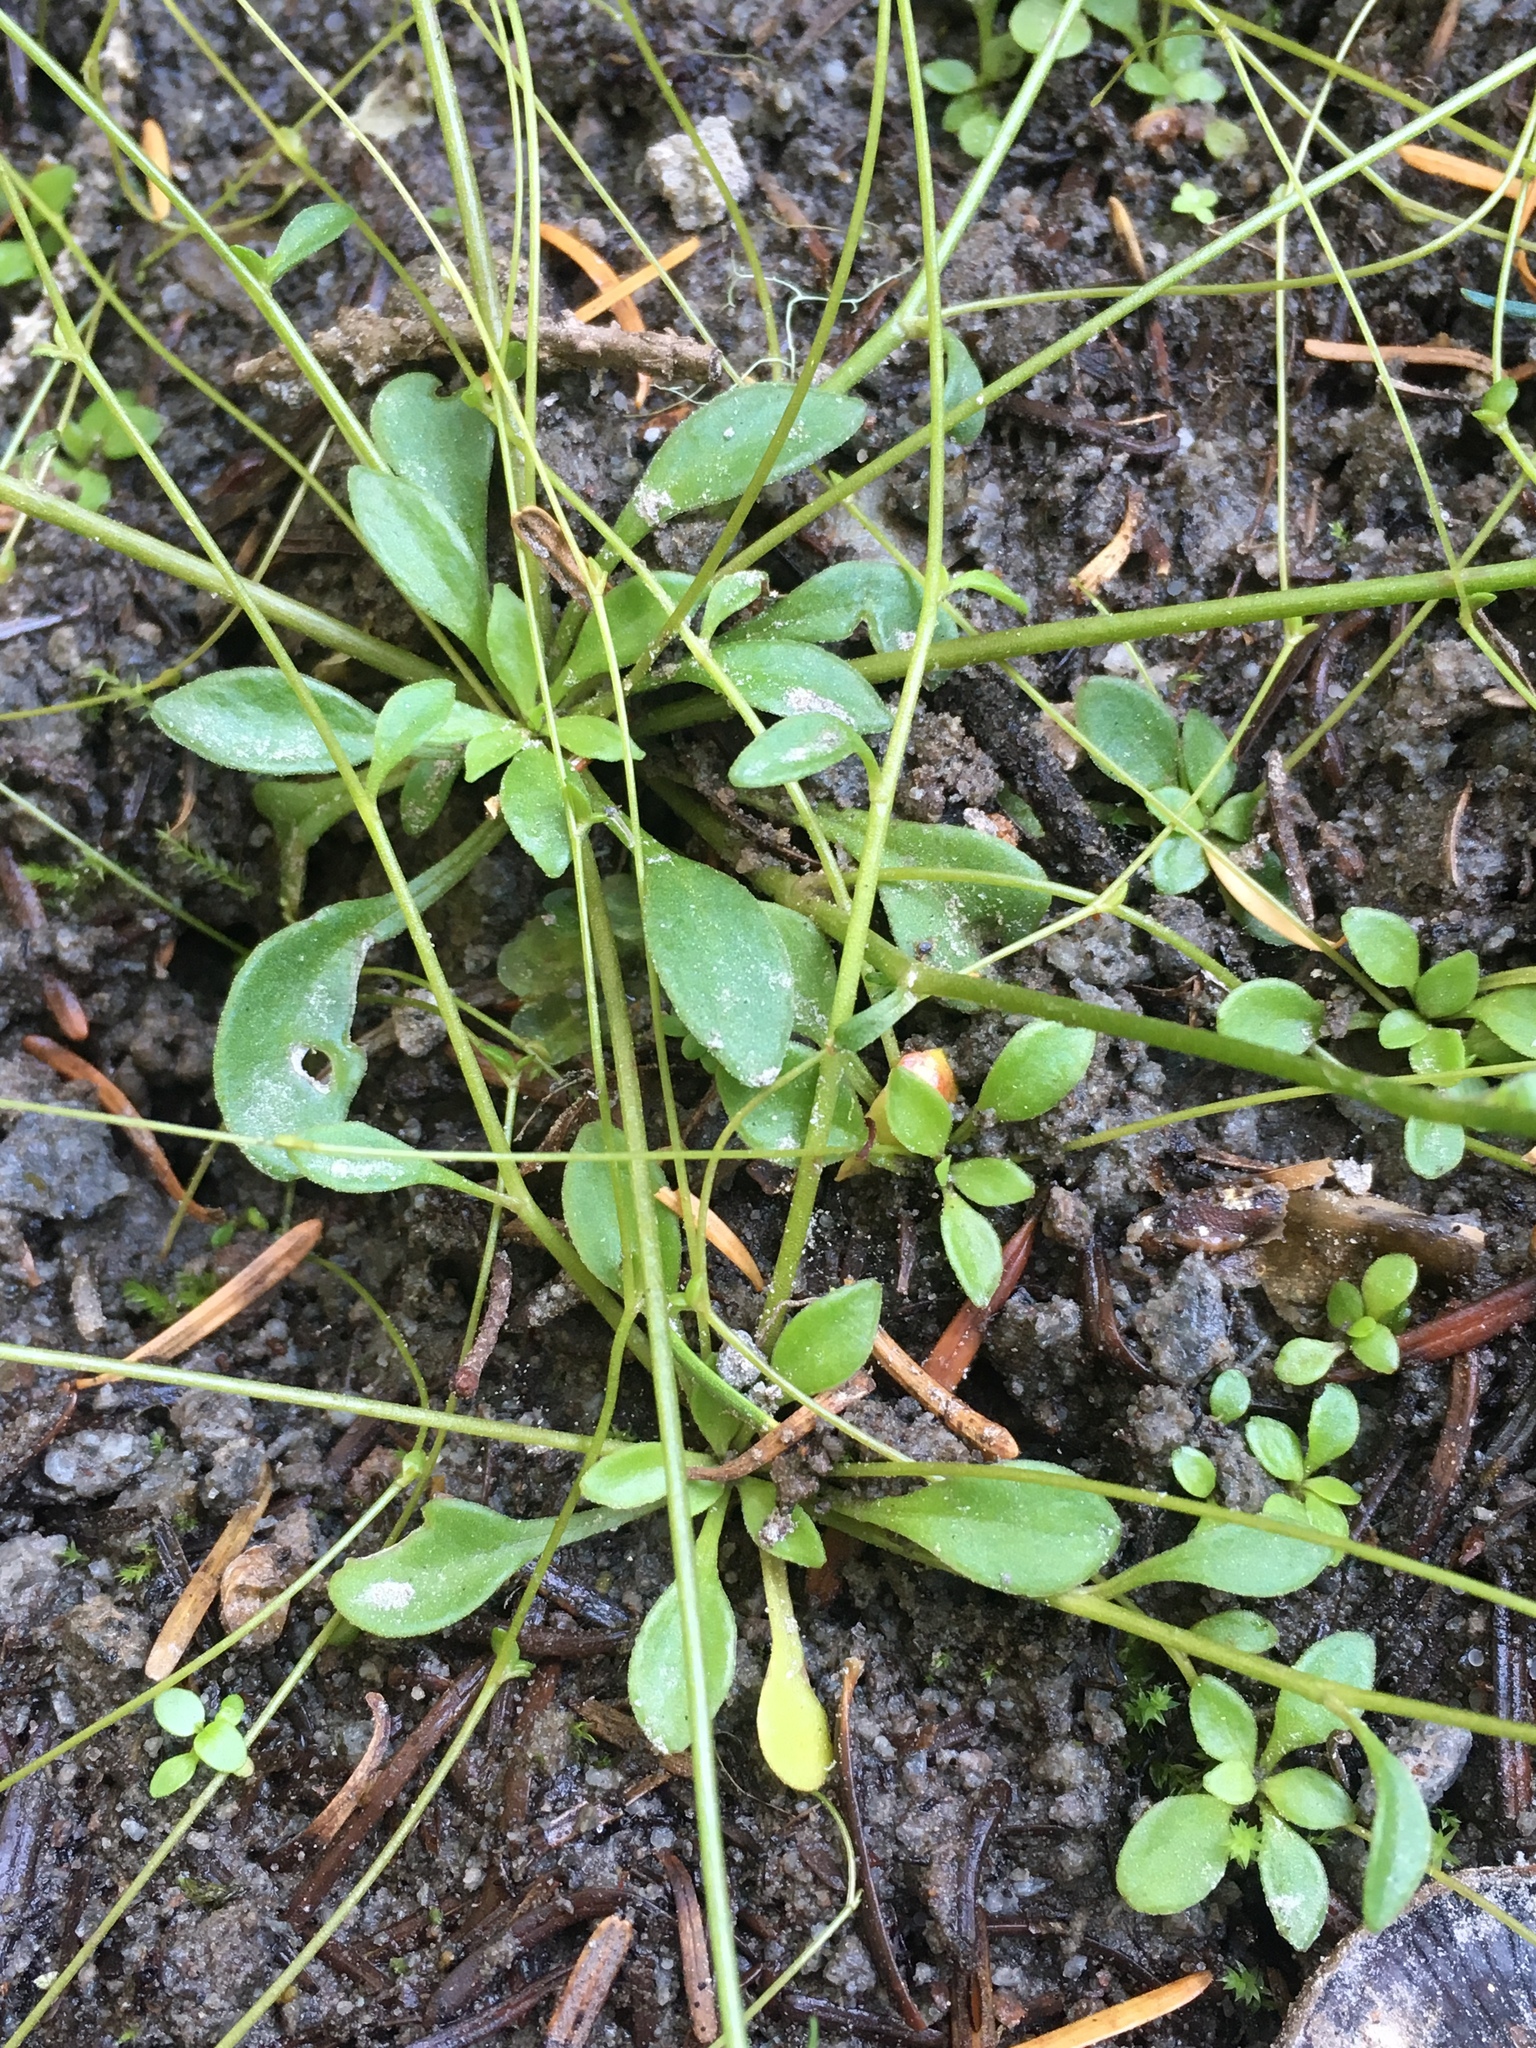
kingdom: Plantae
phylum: Tracheophyta
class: Magnoliopsida
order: Caryophyllales
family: Montiaceae
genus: Montia
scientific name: Montia parvifolia
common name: Small-leaved blinks
